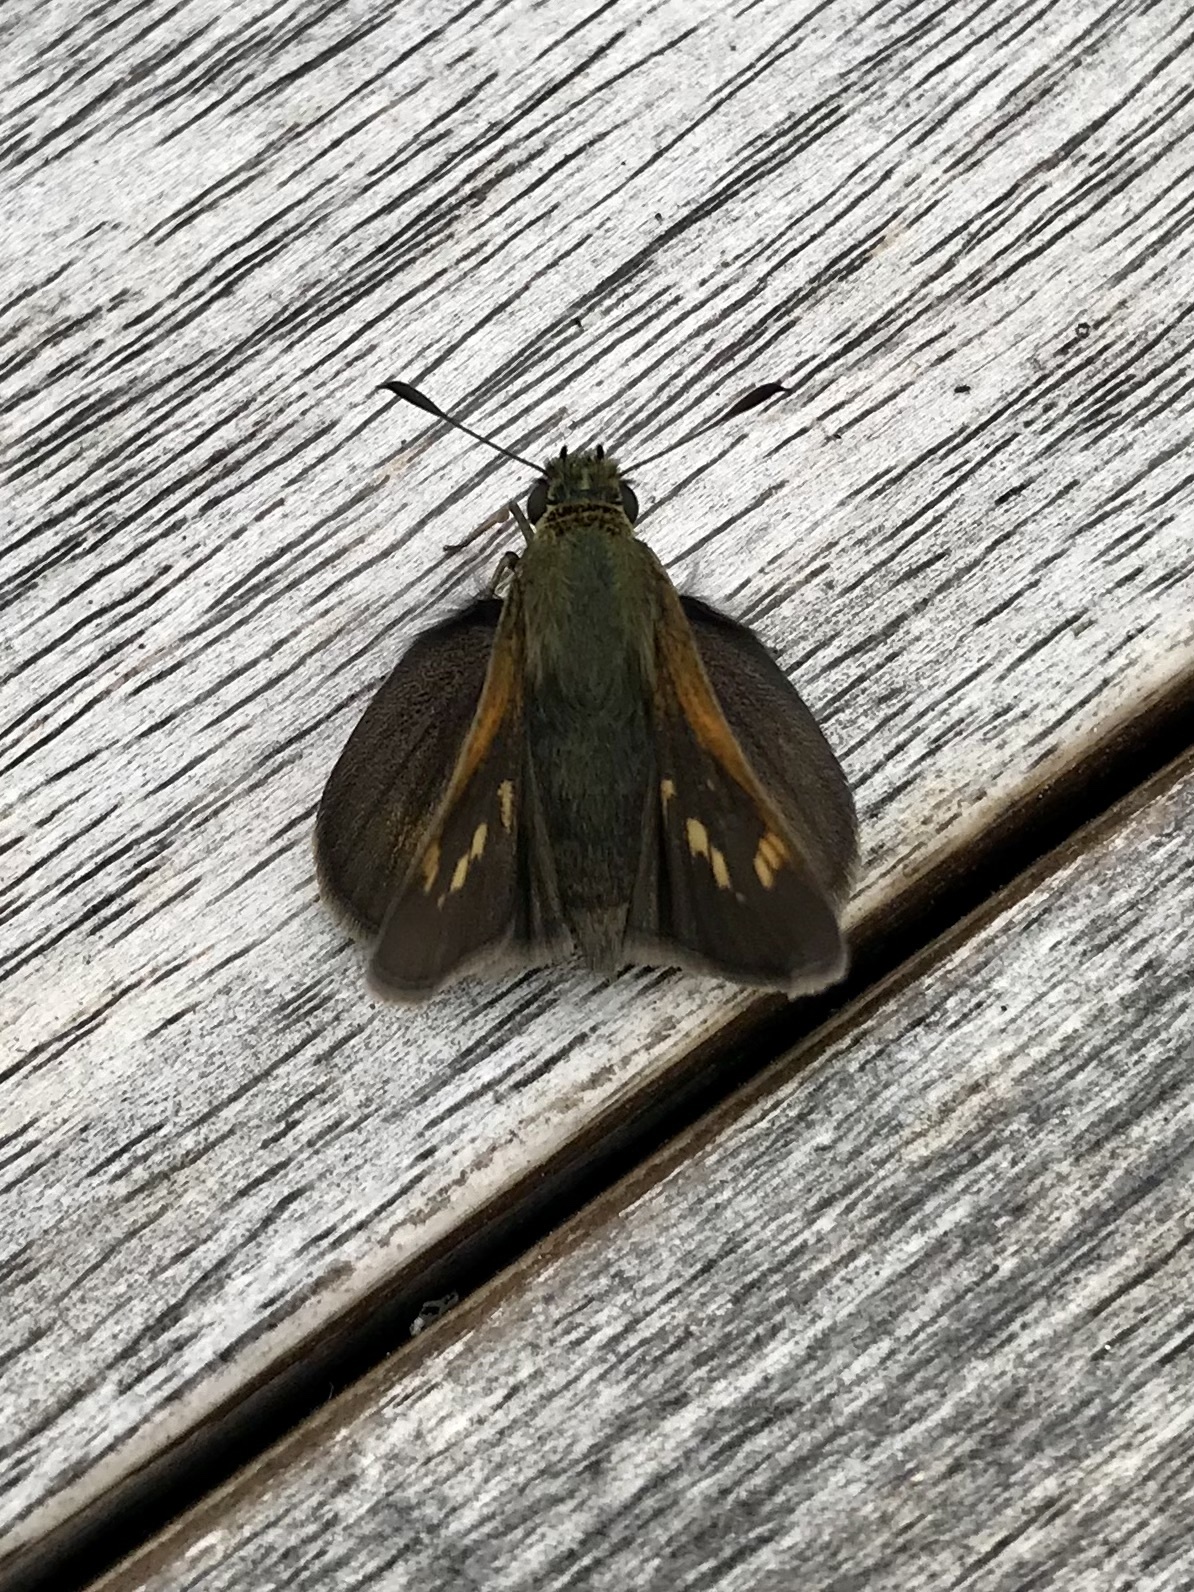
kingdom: Animalia
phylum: Arthropoda
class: Insecta
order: Lepidoptera
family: Hesperiidae
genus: Polites
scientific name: Polites themistocles
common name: Tawny-edged skipper
